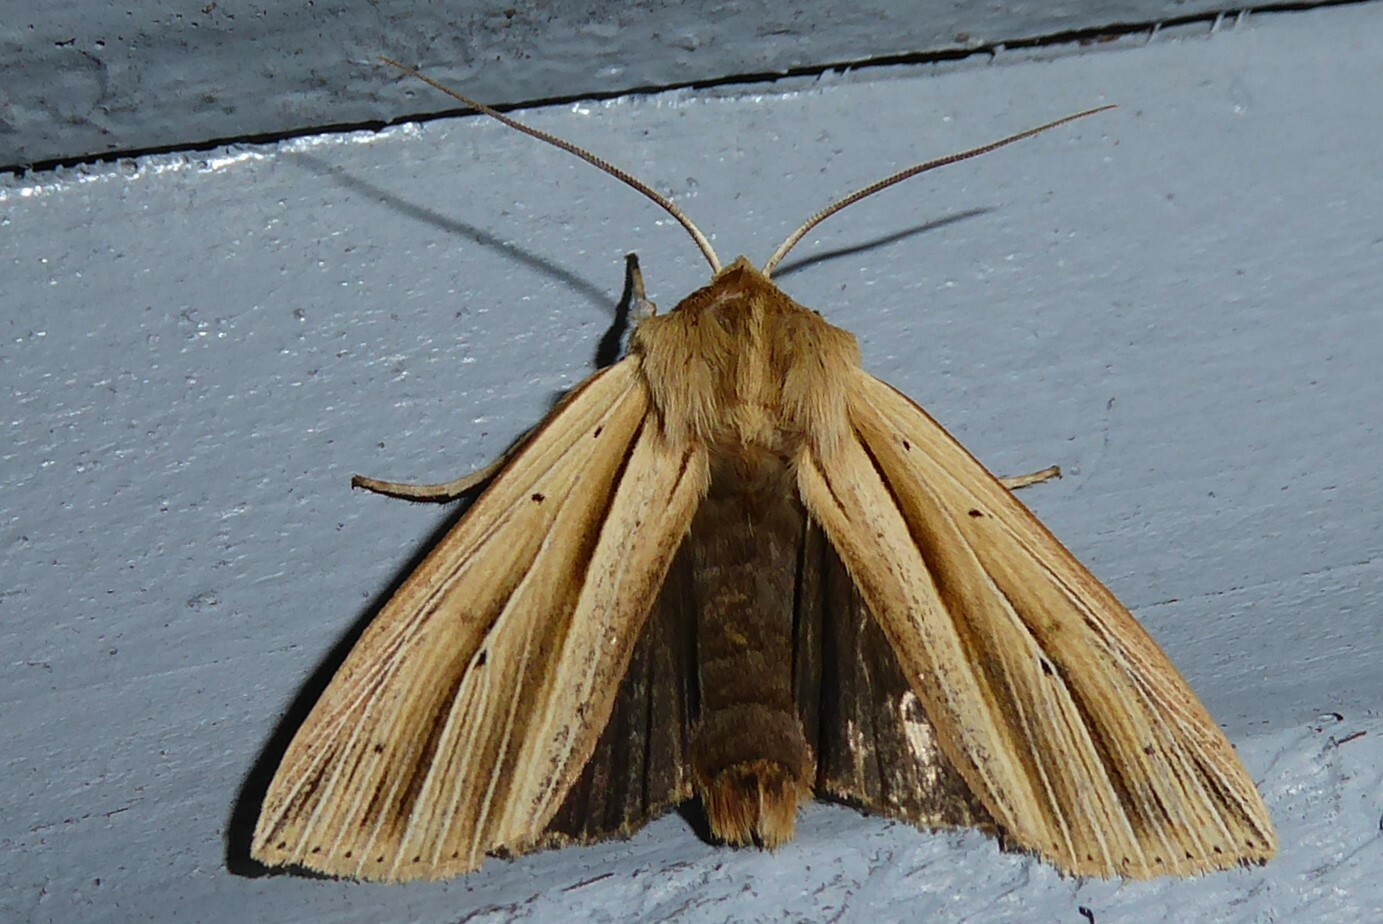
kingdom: Animalia
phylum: Arthropoda
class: Insecta
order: Lepidoptera
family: Noctuidae
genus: Ichneutica
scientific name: Ichneutica sulcana
